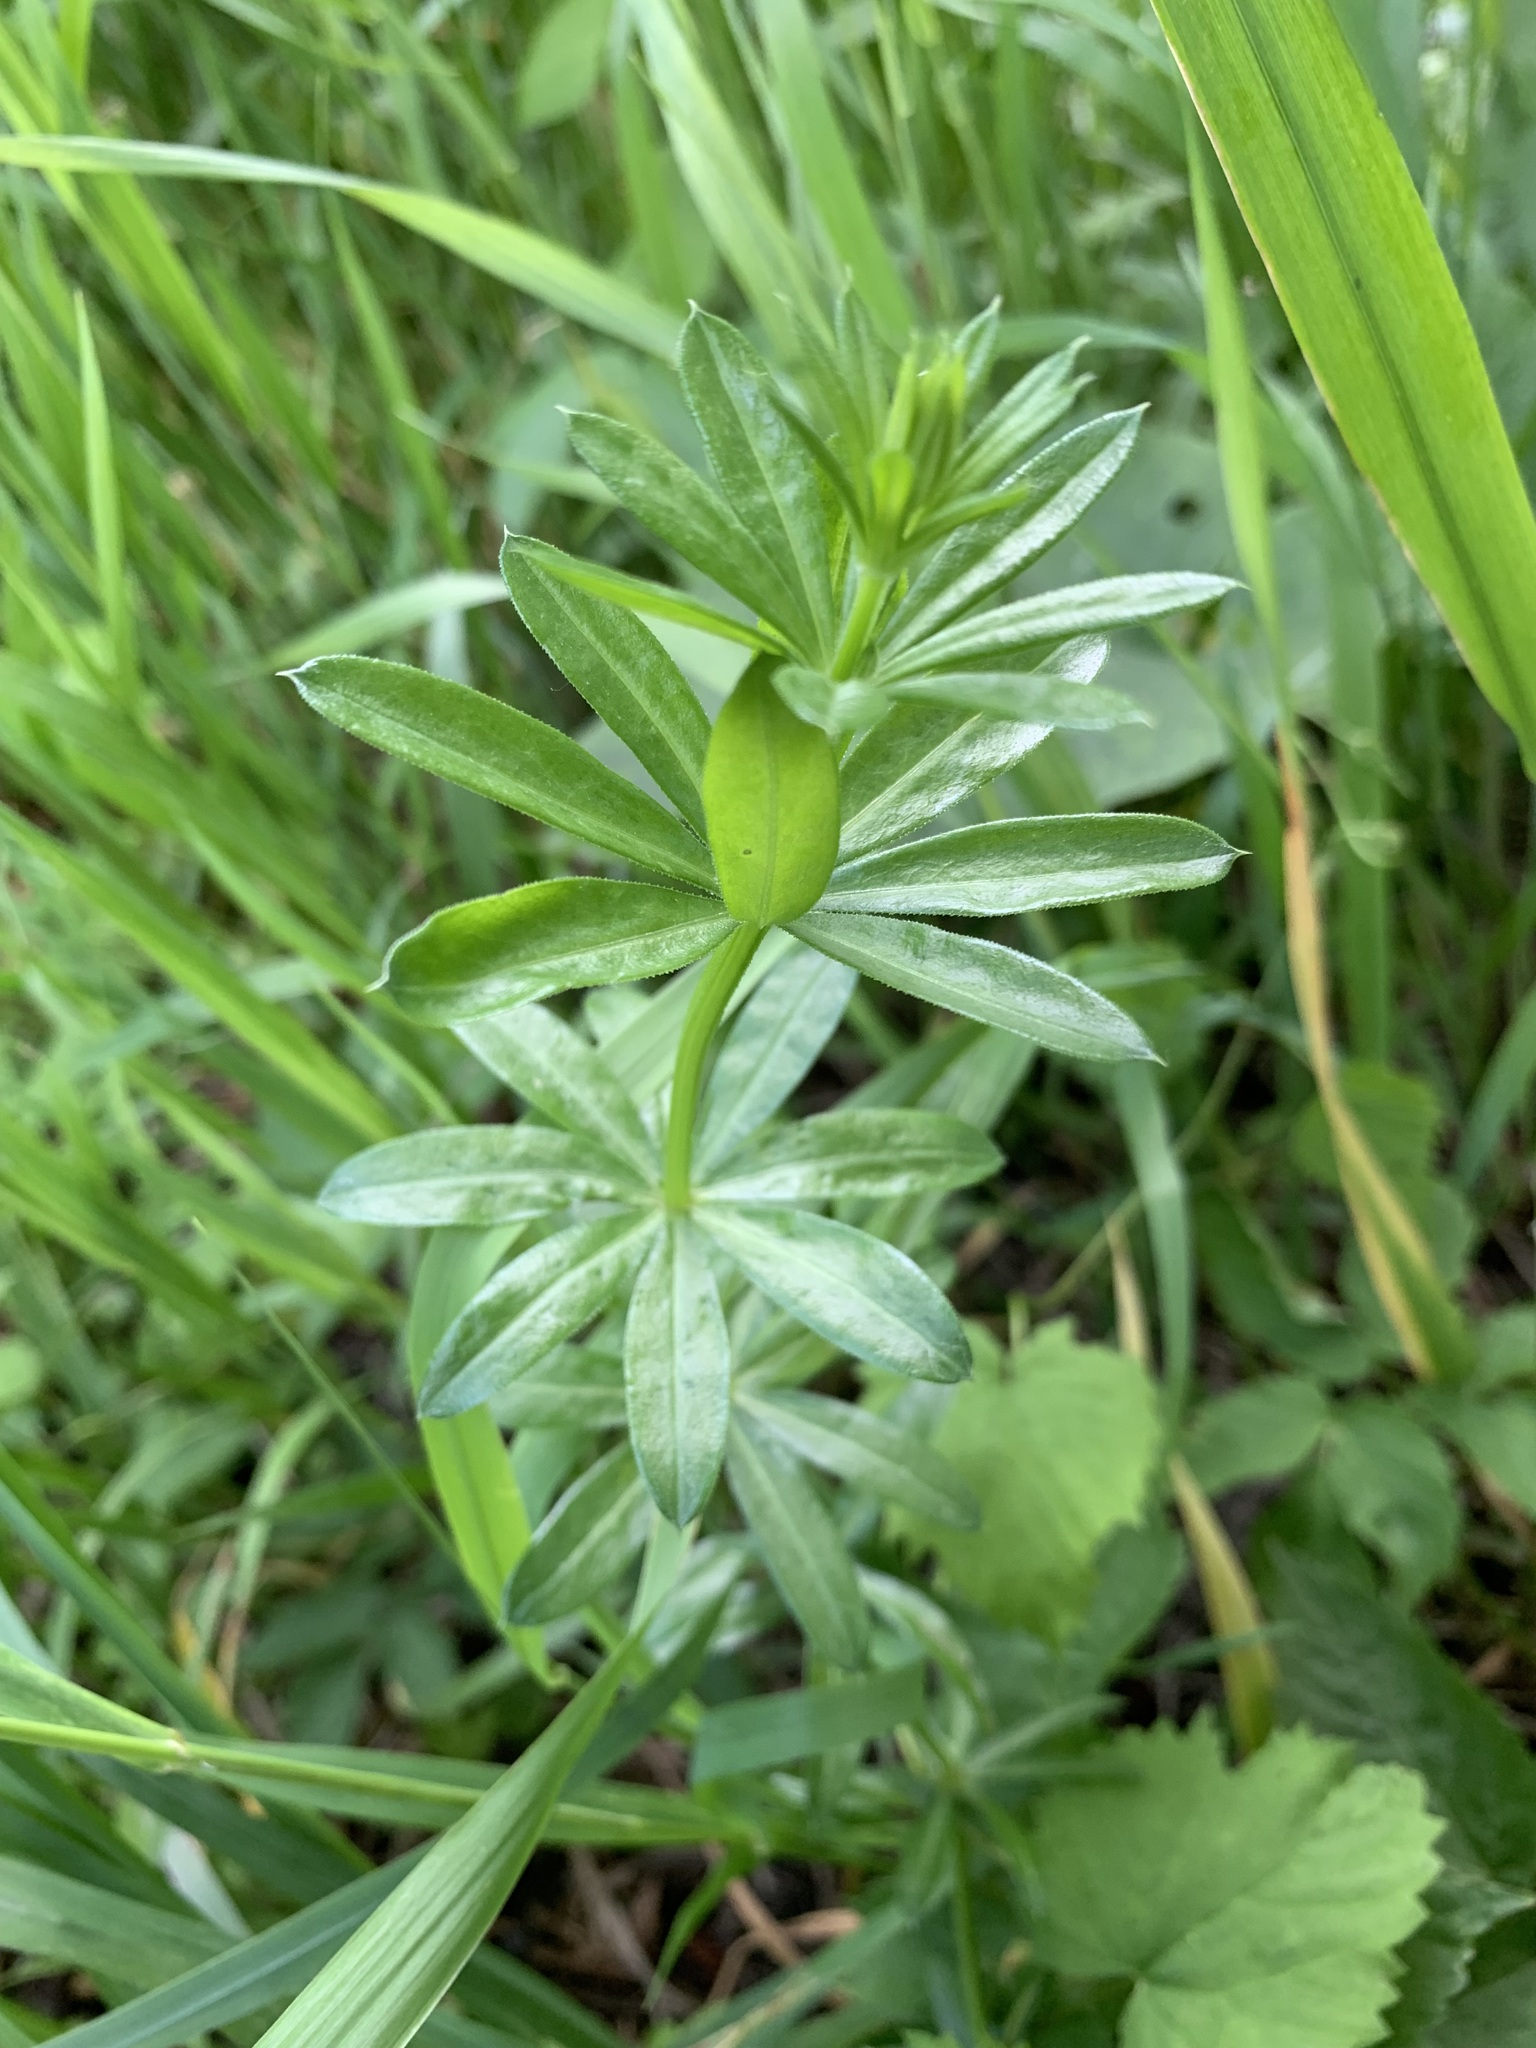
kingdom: Plantae
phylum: Tracheophyta
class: Magnoliopsida
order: Gentianales
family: Rubiaceae
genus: Galium
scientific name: Galium mollugo
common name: Hedge bedstraw
